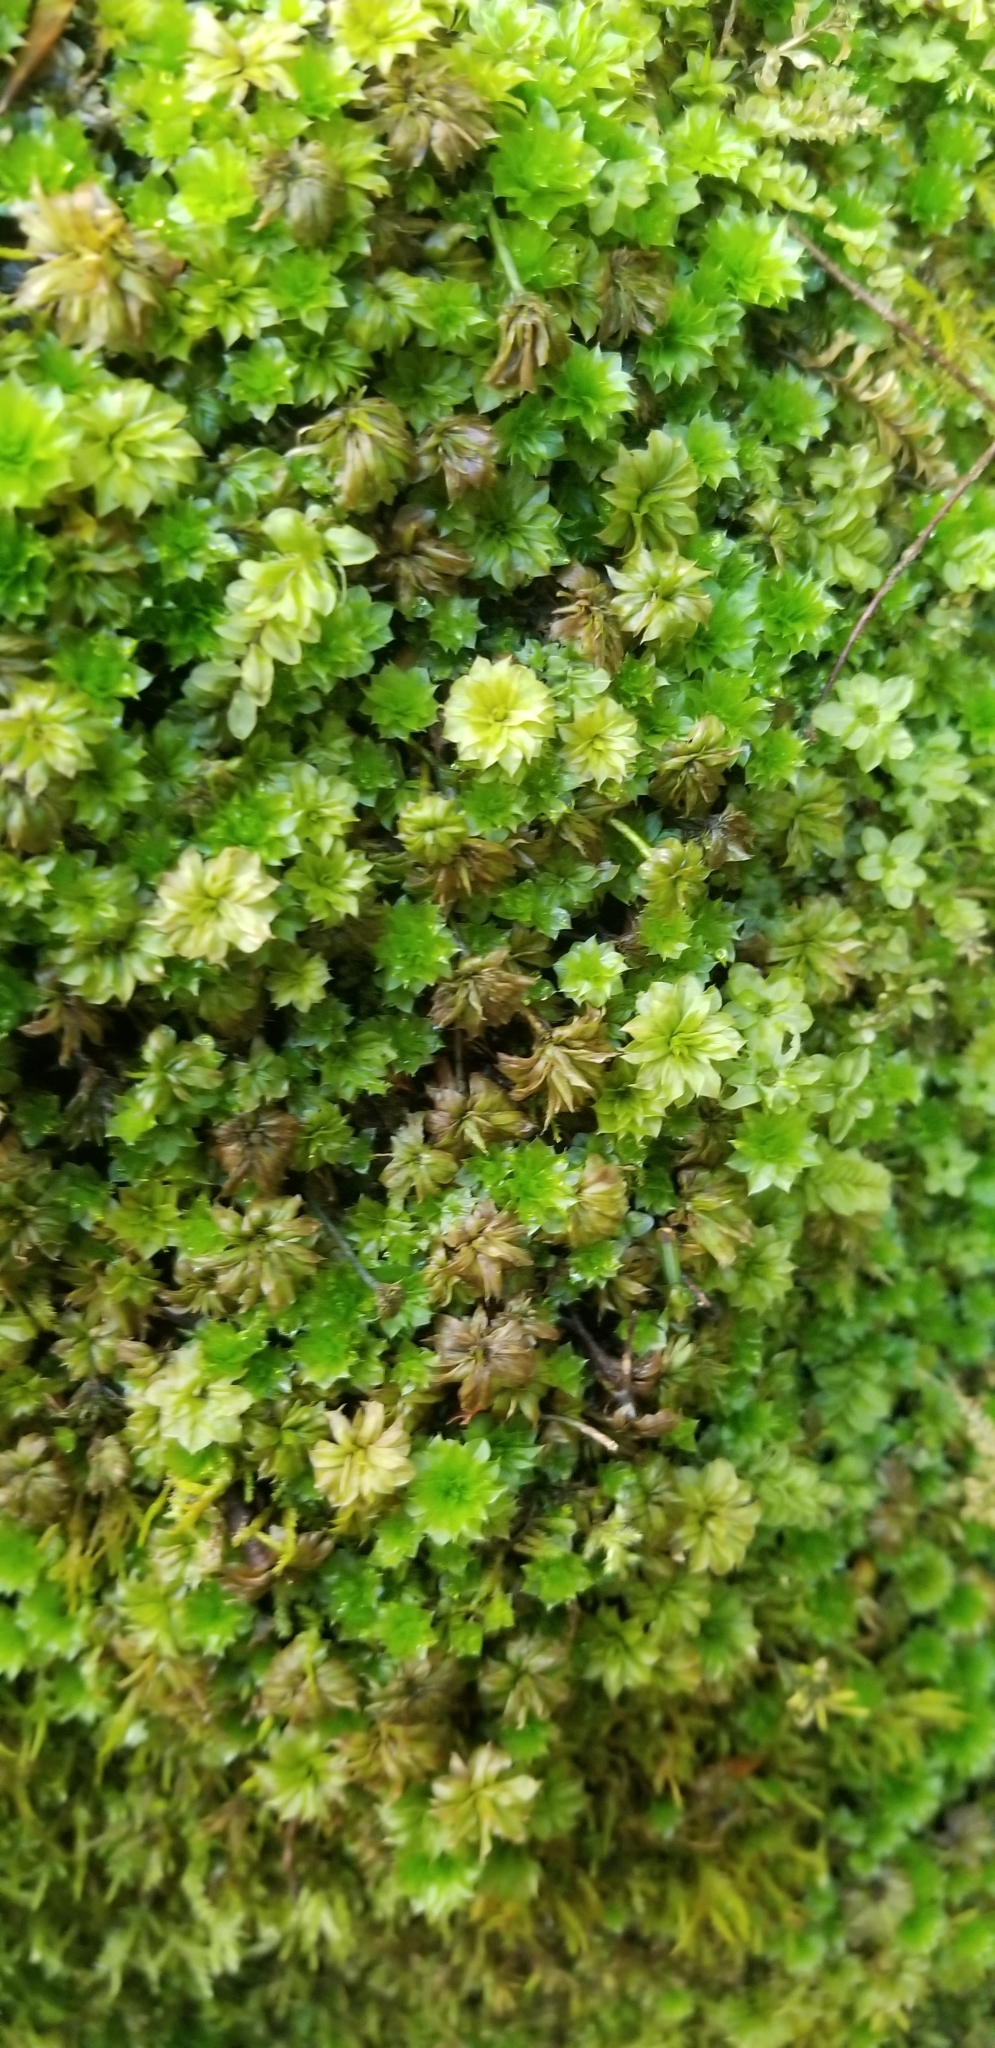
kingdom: Plantae
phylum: Bryophyta
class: Bryopsida
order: Bryales
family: Bryaceae
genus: Rhodobryum
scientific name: Rhodobryum ontariense
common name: Ontario rhodobryum moss
